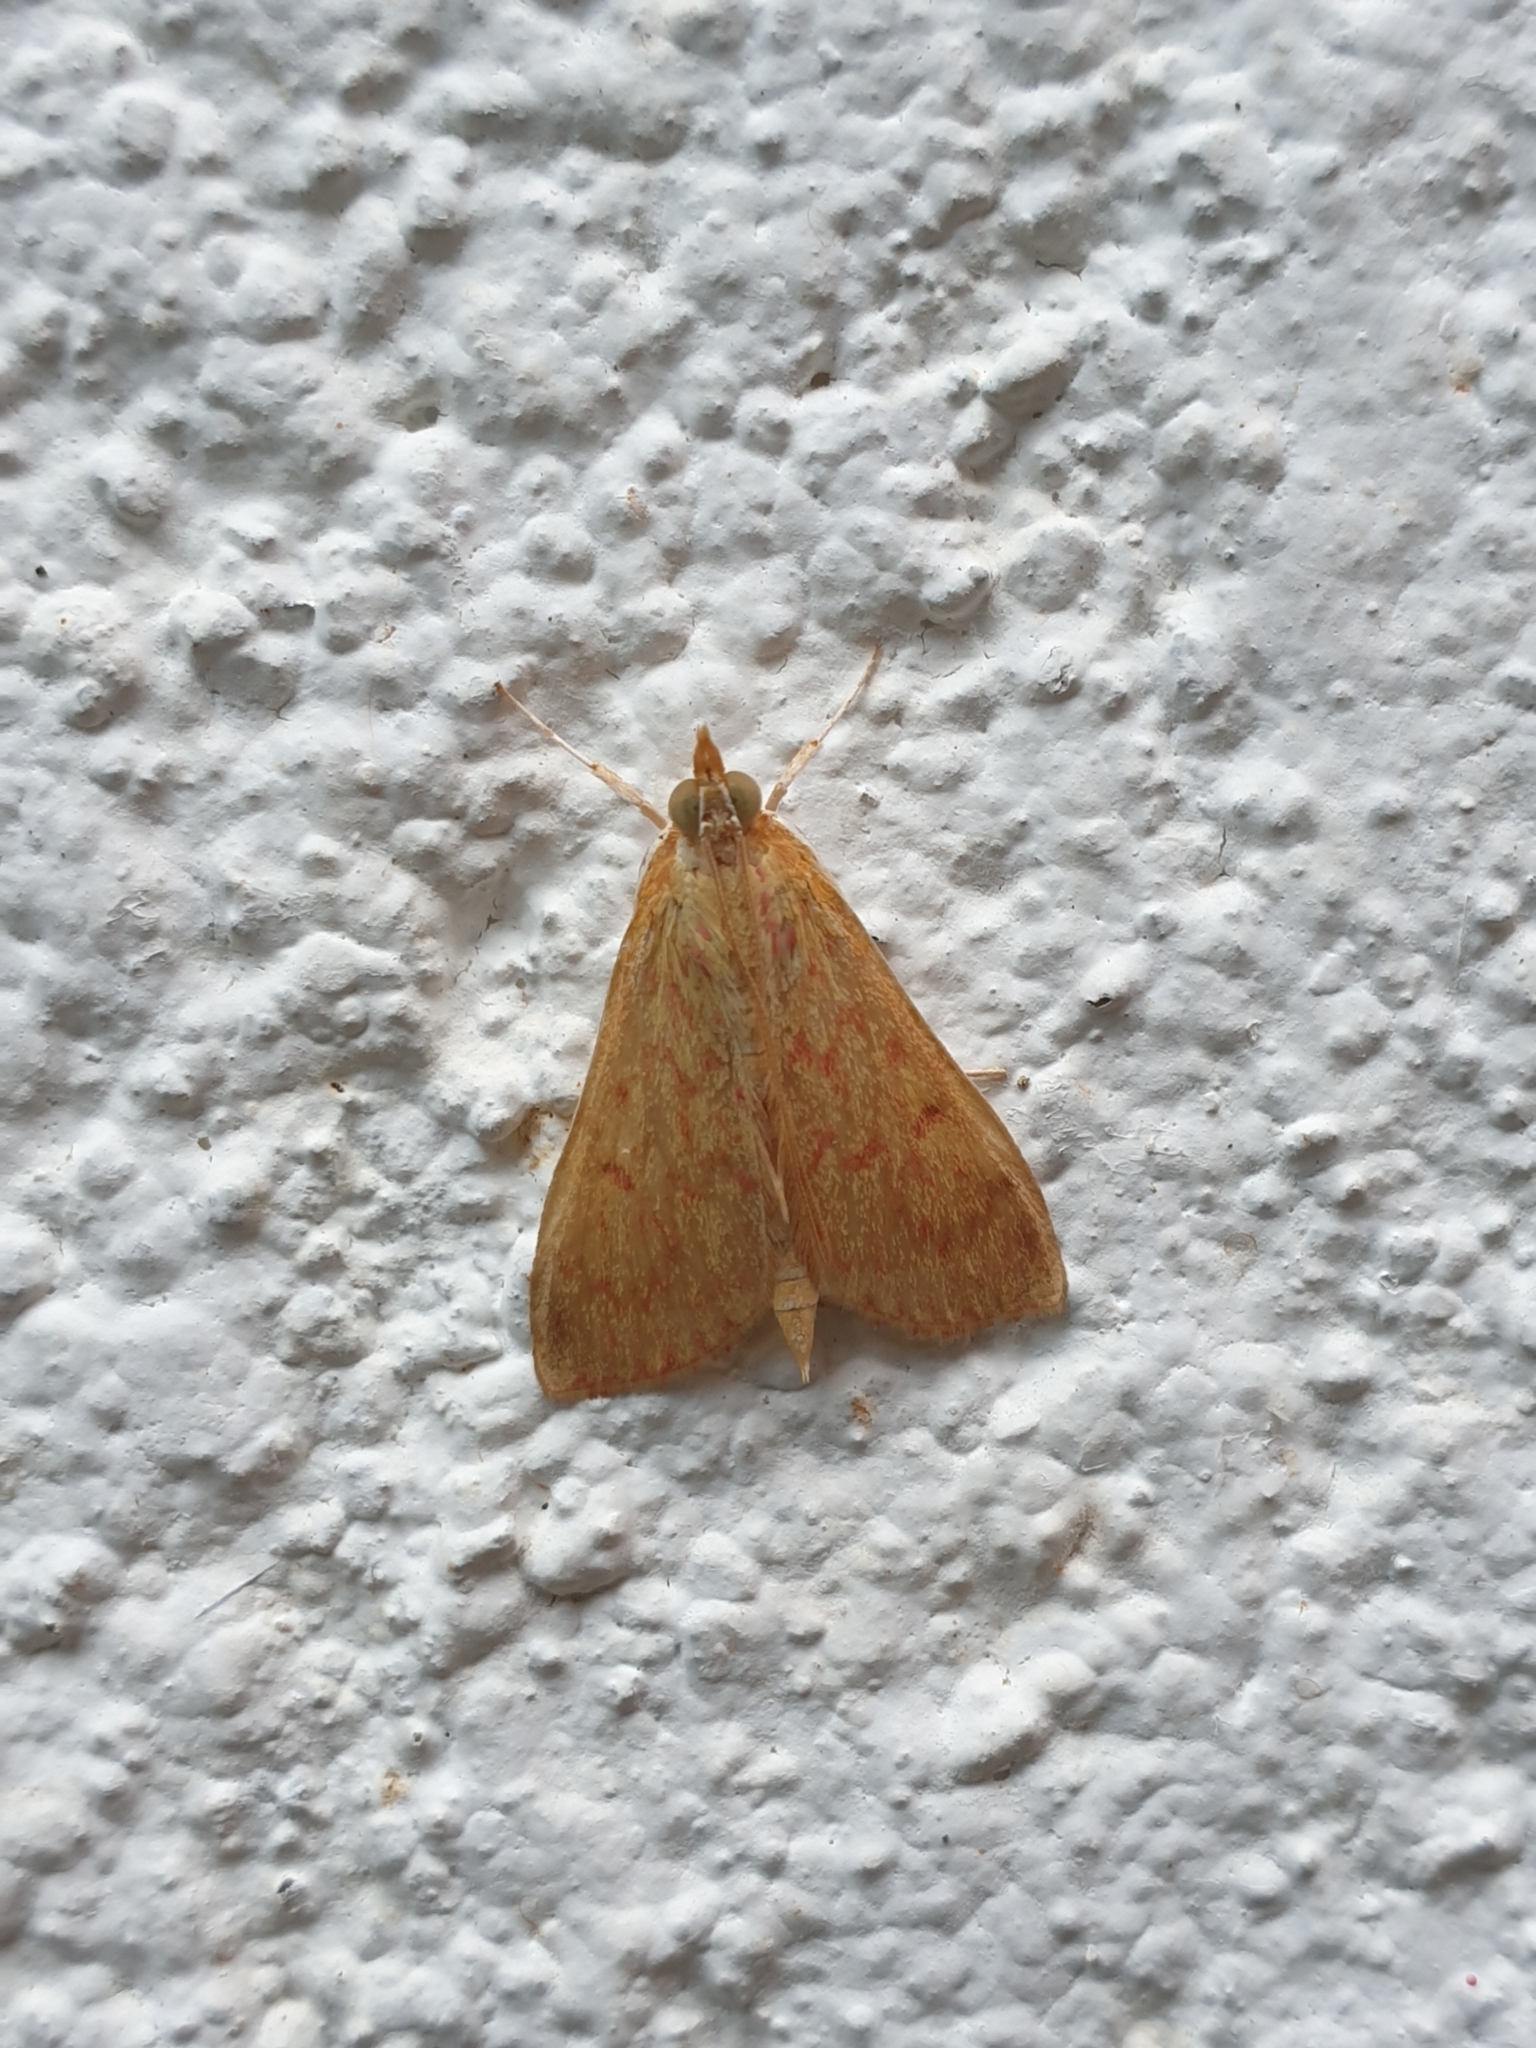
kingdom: Animalia
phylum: Arthropoda
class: Insecta
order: Lepidoptera
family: Crambidae
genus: Paliga
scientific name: Paliga damastesalis
